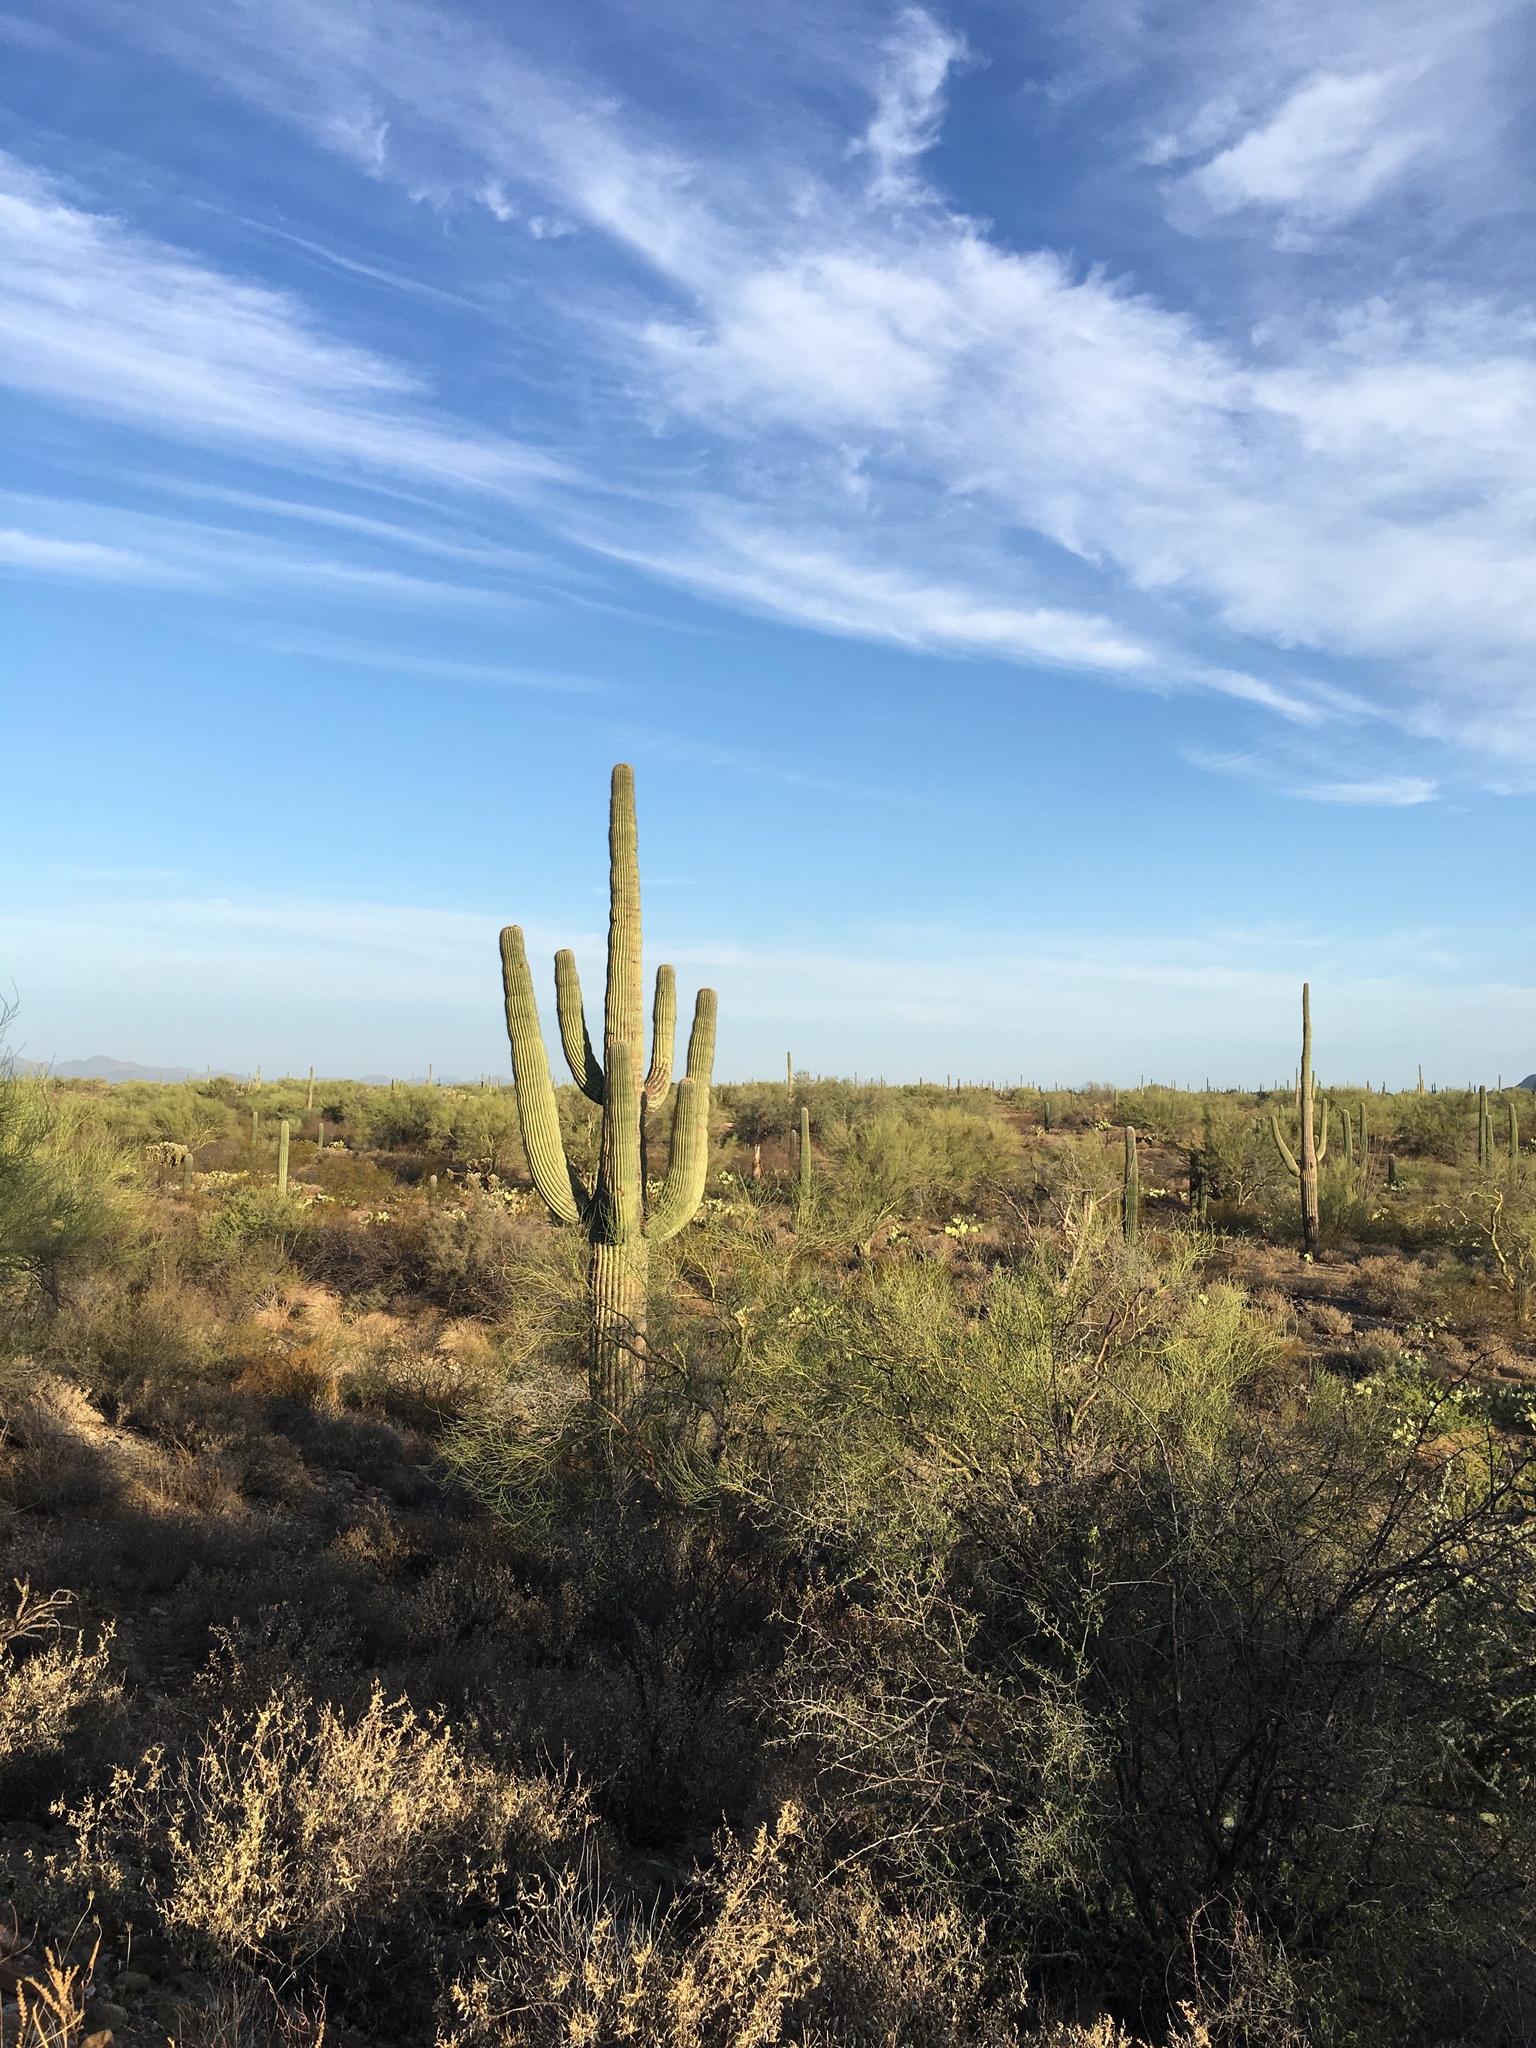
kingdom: Plantae
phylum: Tracheophyta
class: Magnoliopsida
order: Caryophyllales
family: Cactaceae
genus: Carnegiea
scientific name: Carnegiea gigantea
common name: Saguaro
